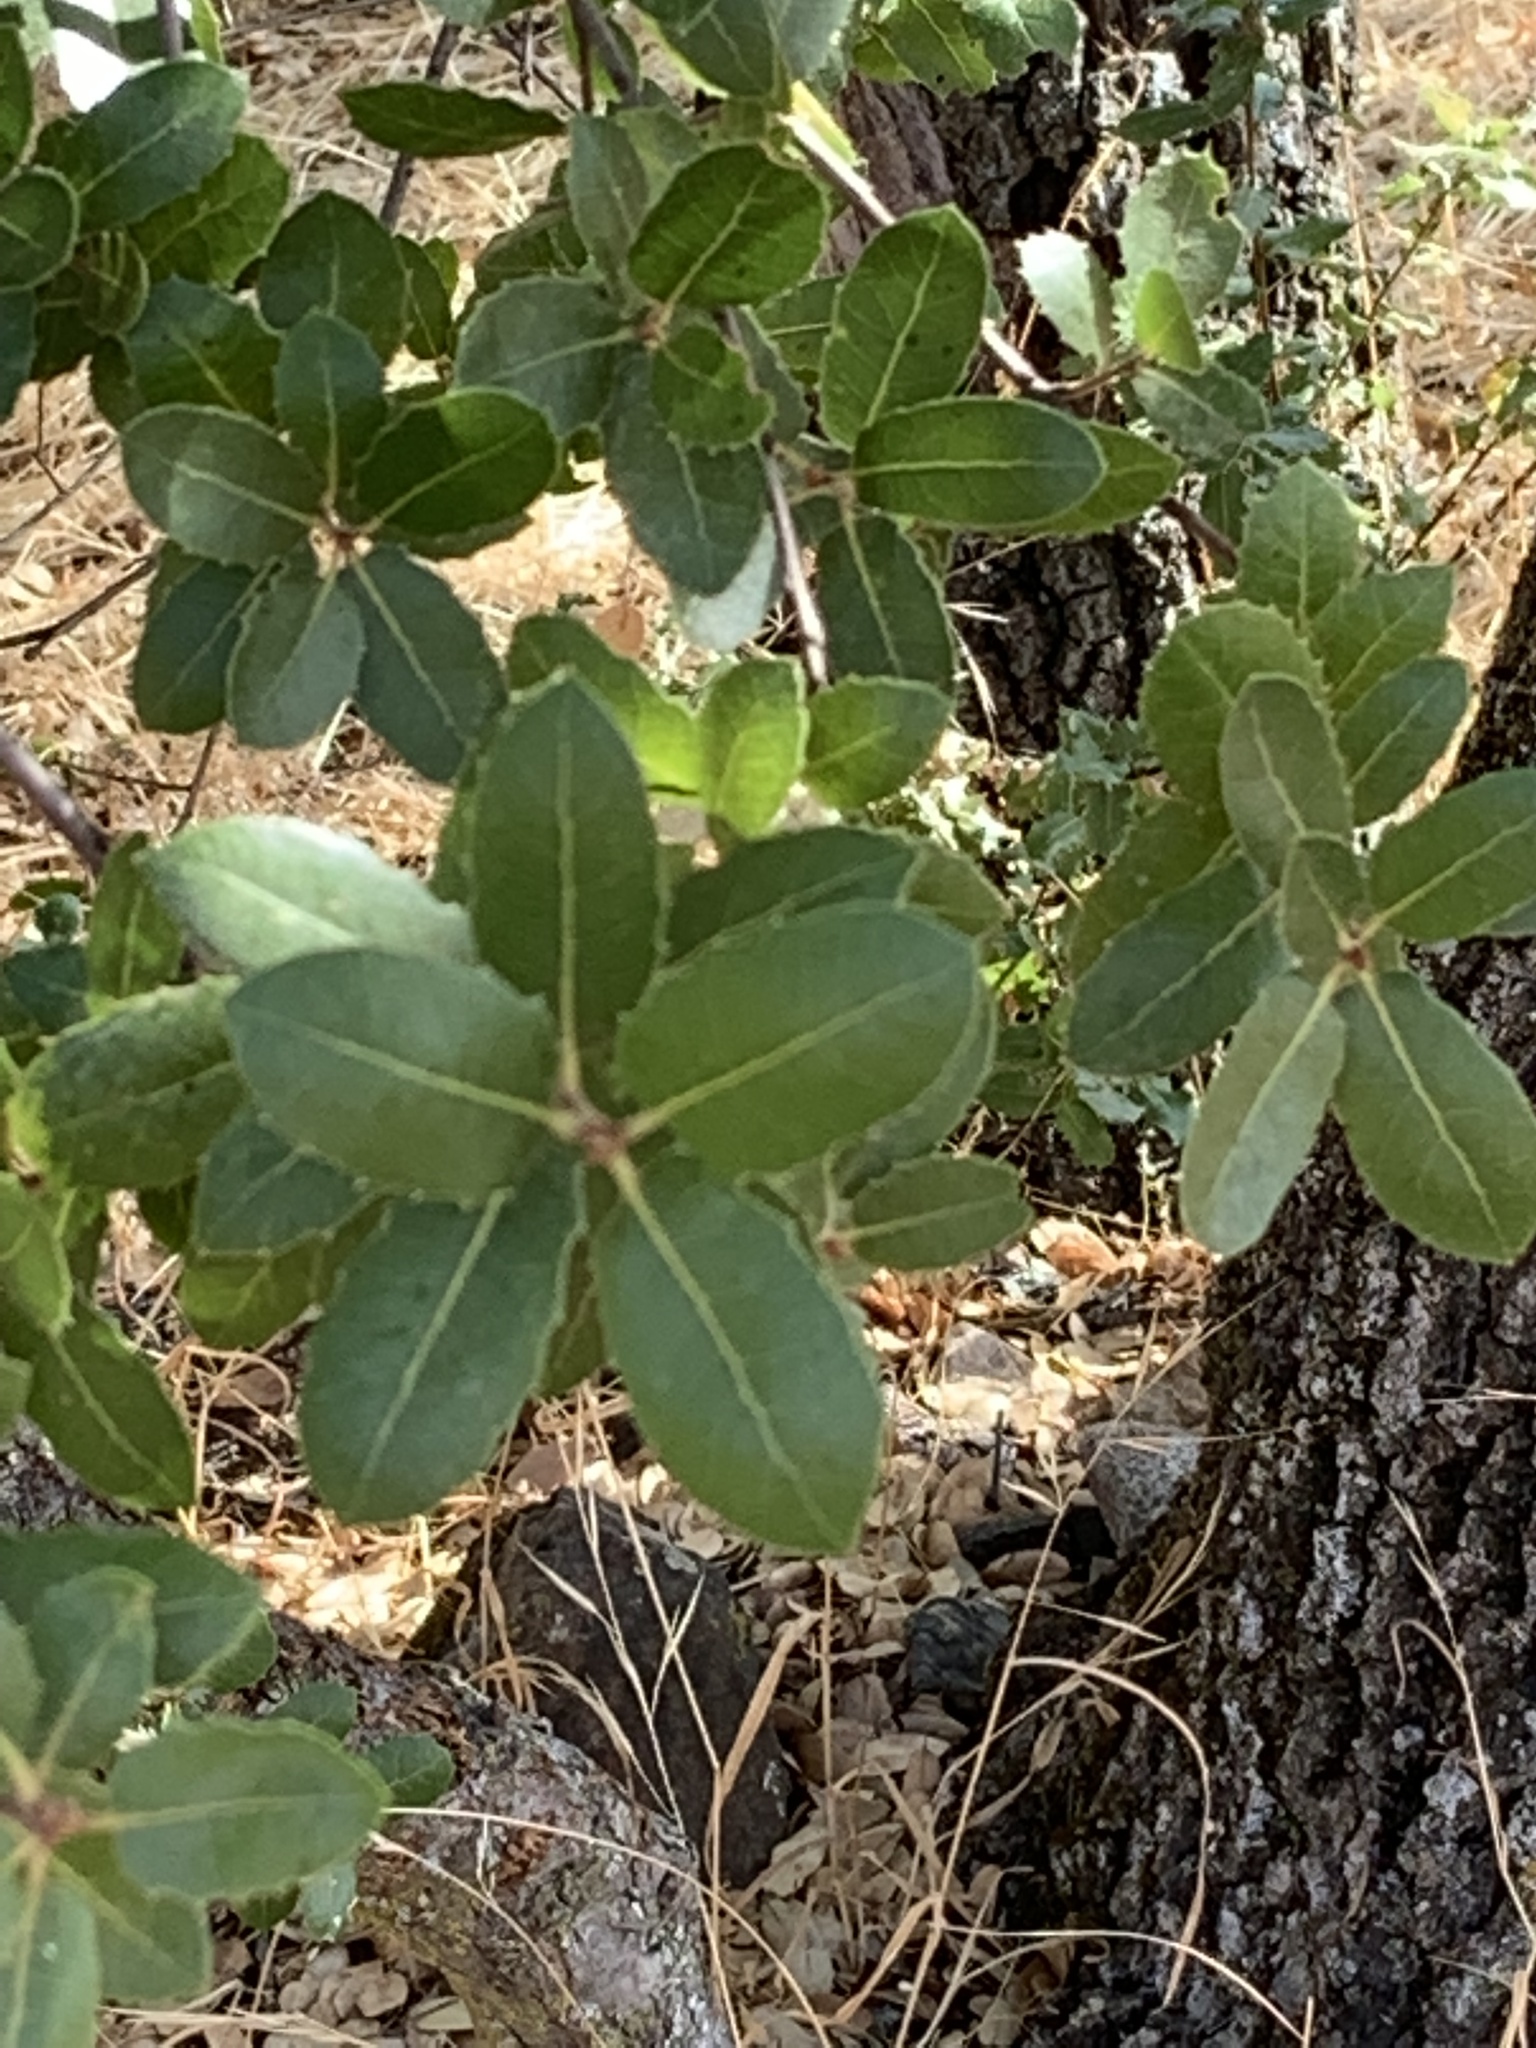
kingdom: Animalia
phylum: Arthropoda
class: Insecta
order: Hymenoptera
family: Cynipidae
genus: Amphibolips
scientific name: Amphibolips quercuspomiformis
